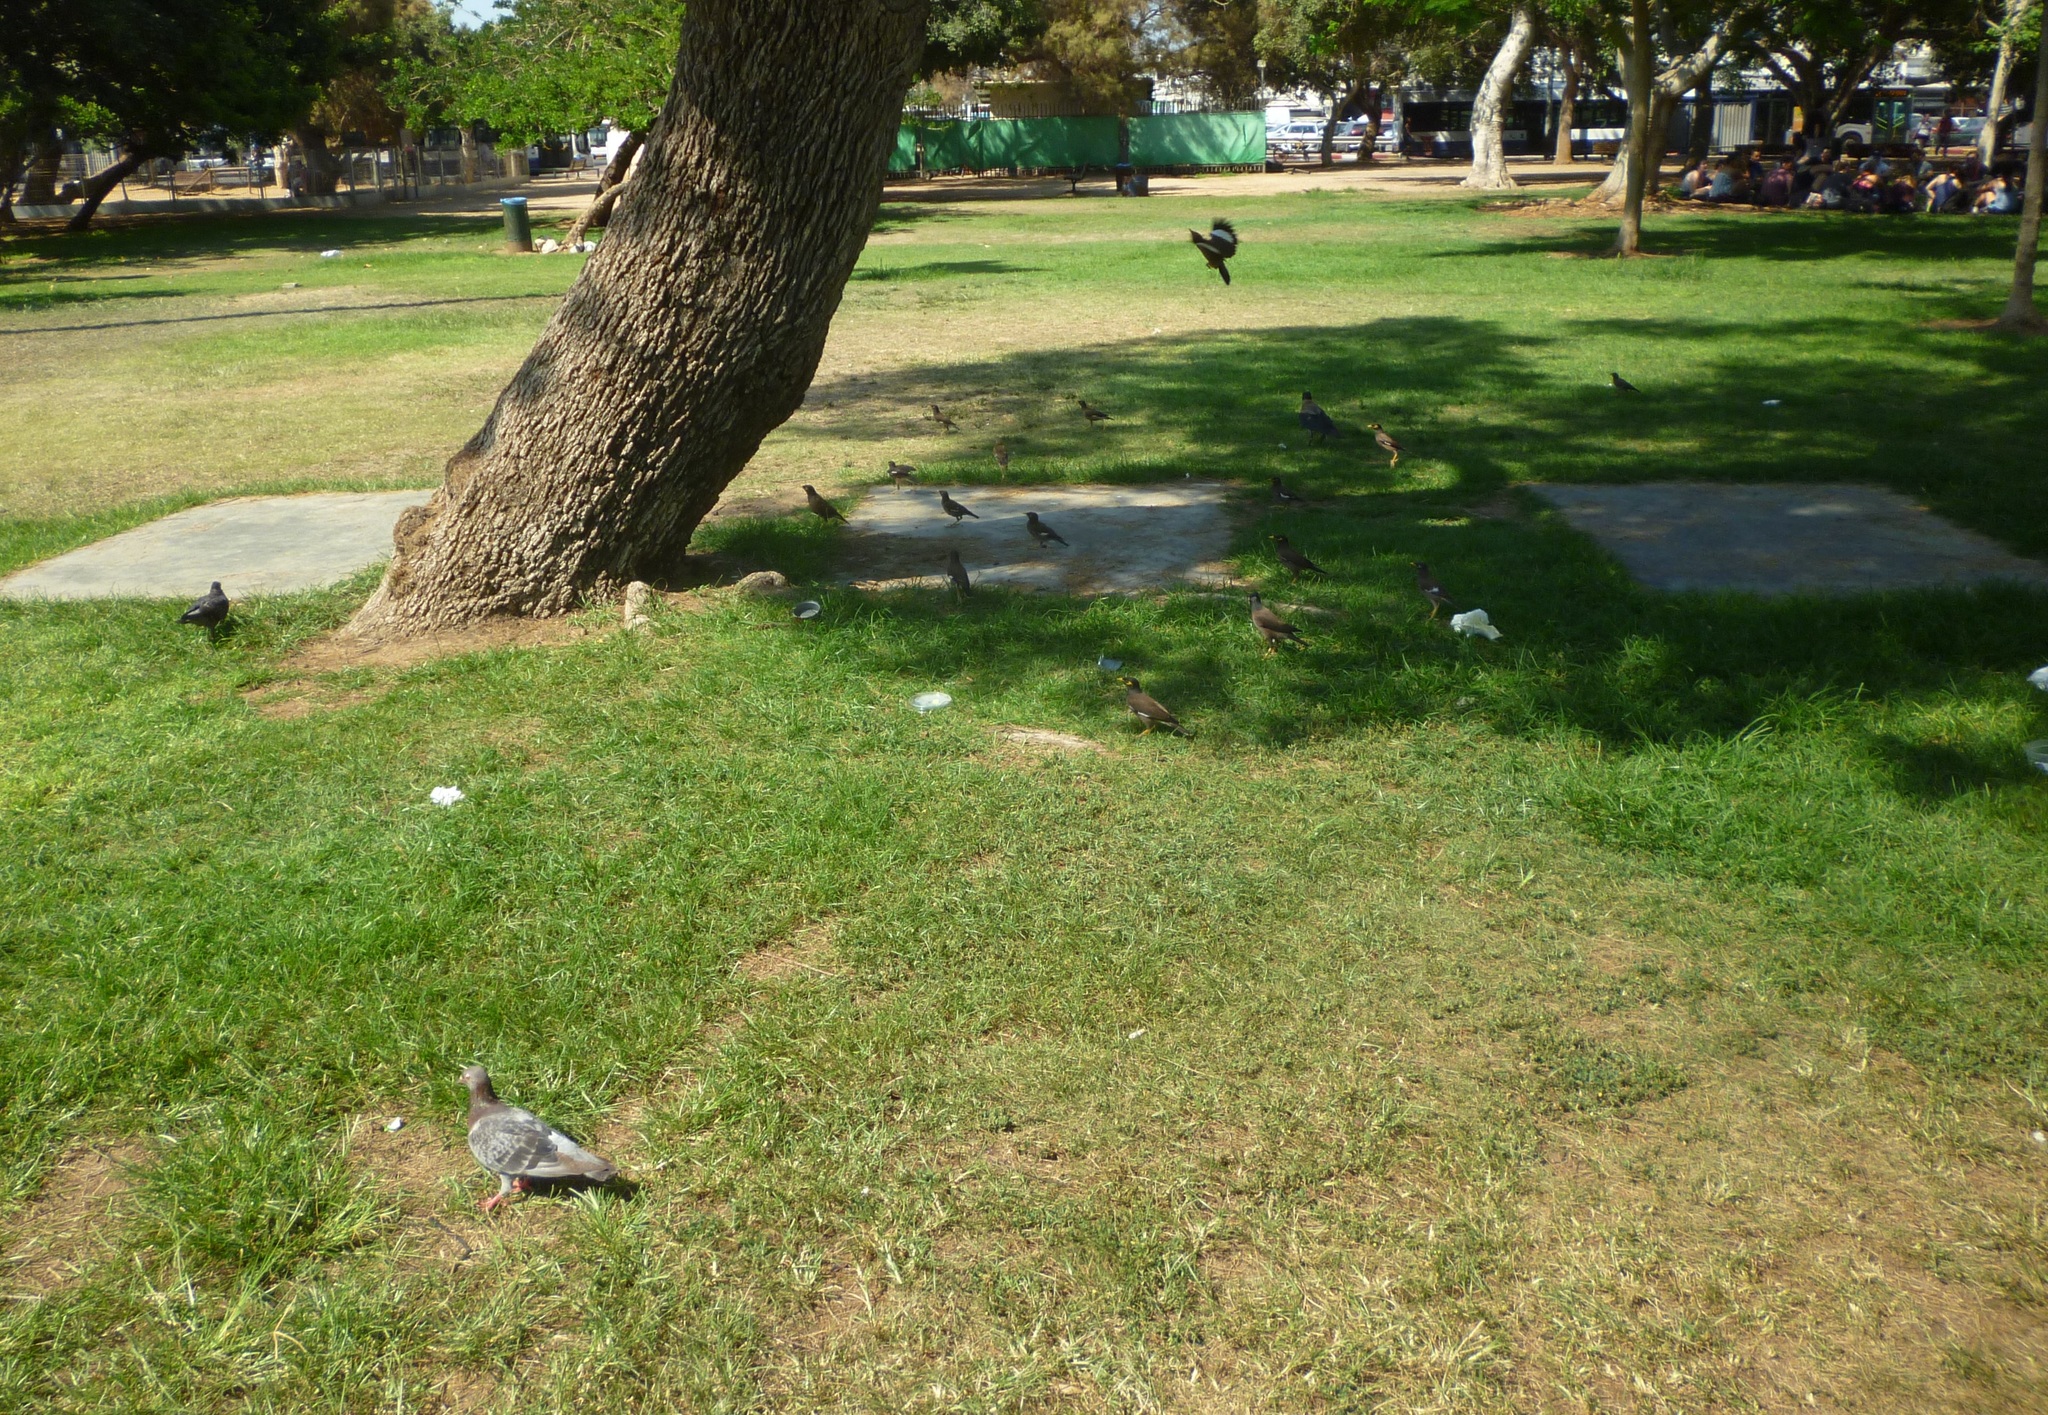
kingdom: Animalia
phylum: Chordata
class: Aves
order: Passeriformes
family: Sturnidae
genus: Acridotheres
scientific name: Acridotheres tristis
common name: Common myna
